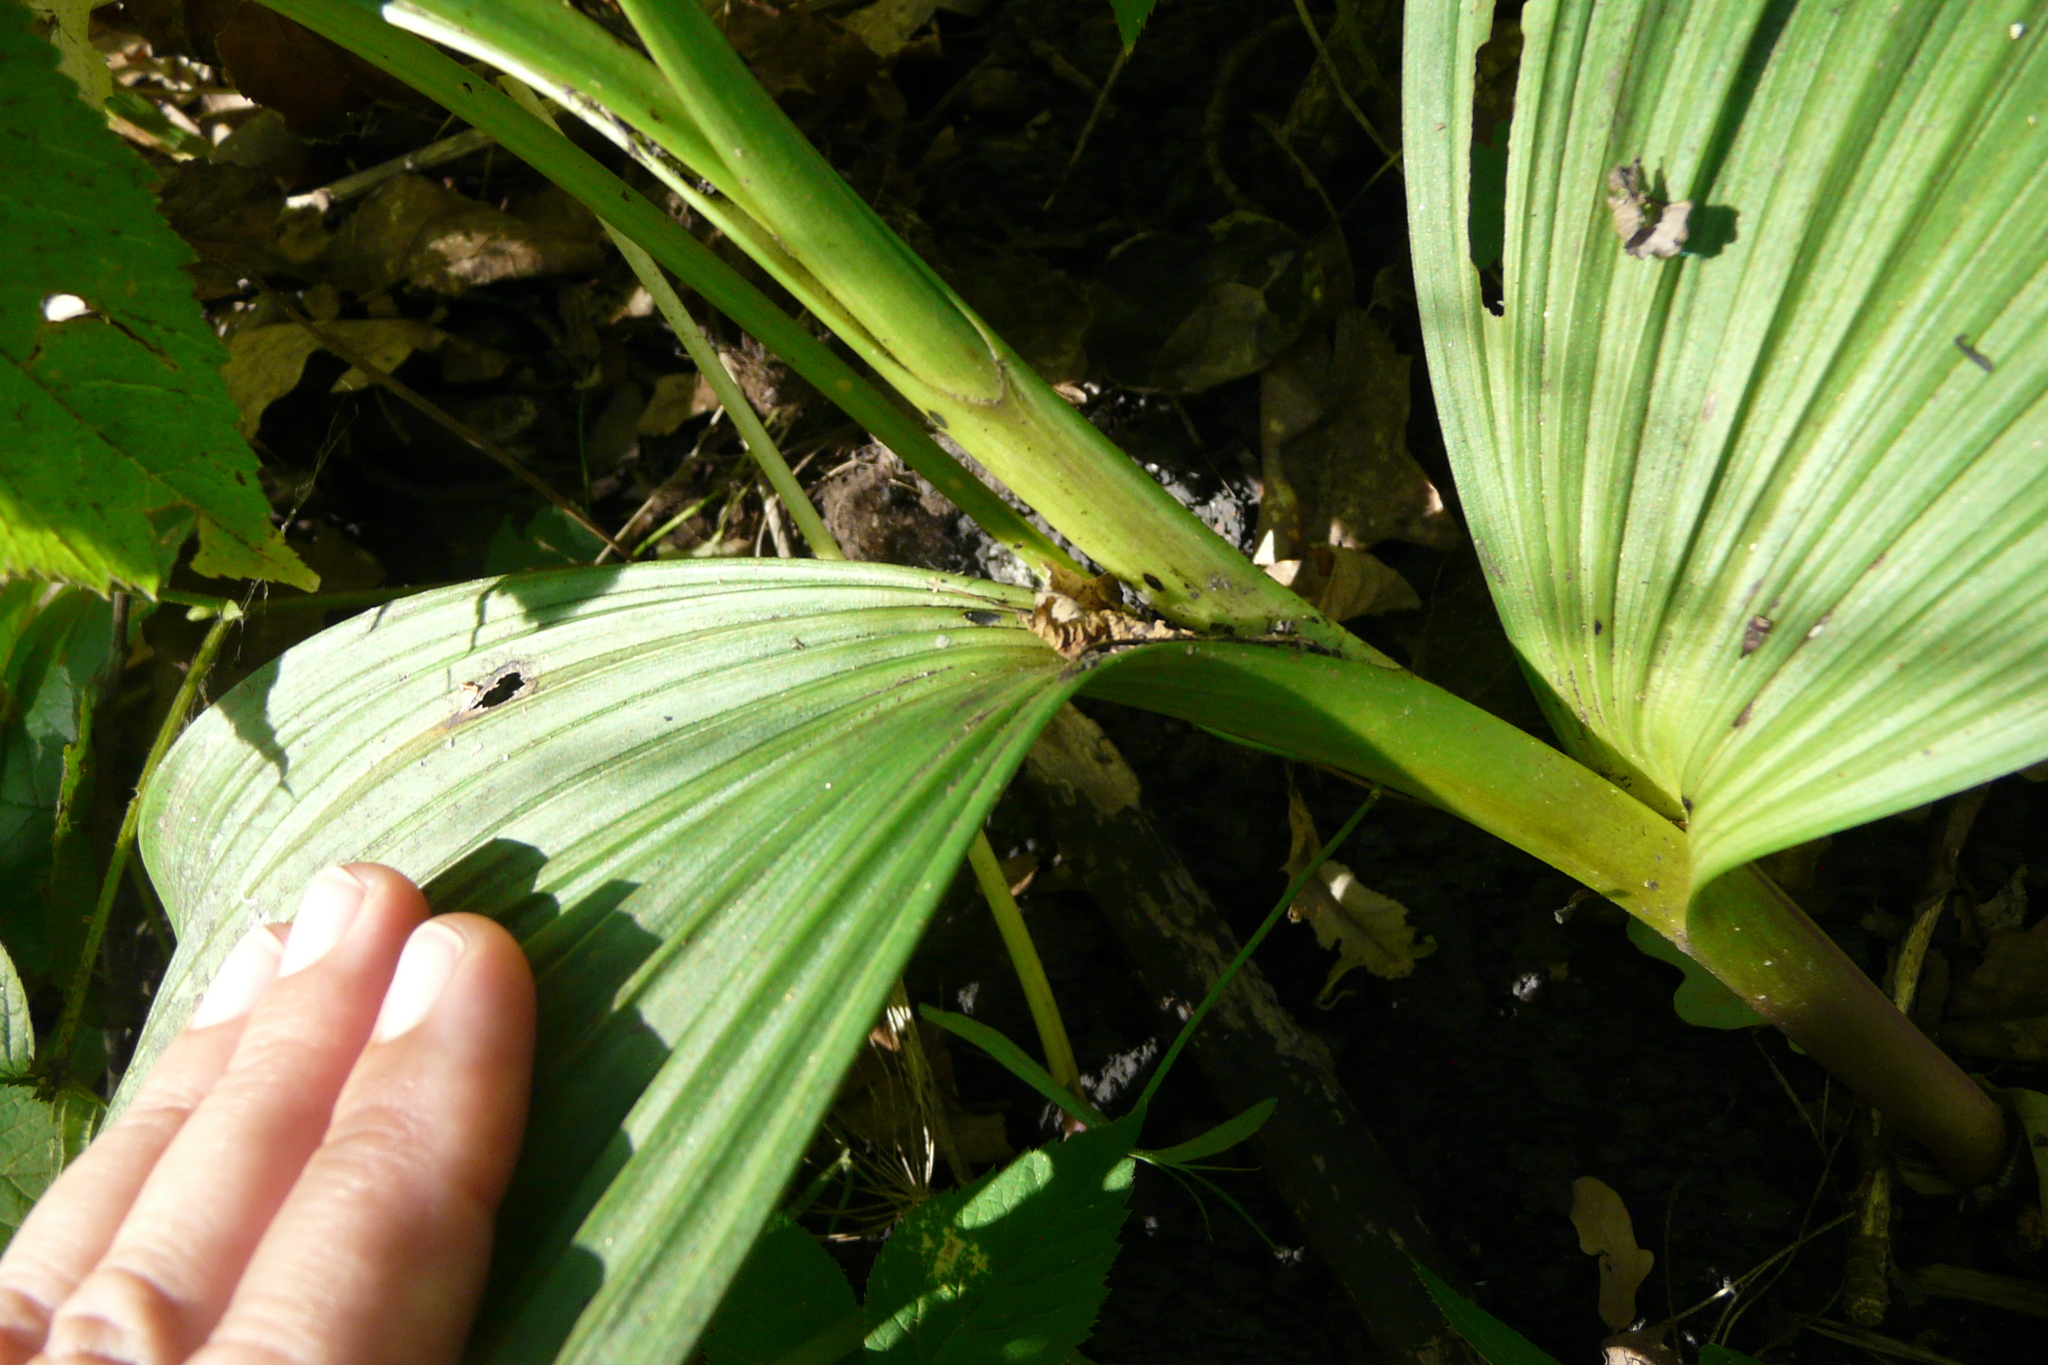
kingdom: Plantae
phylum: Tracheophyta
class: Liliopsida
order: Liliales
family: Melanthiaceae
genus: Veratrum
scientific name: Veratrum nigrum
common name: Black veratrum
